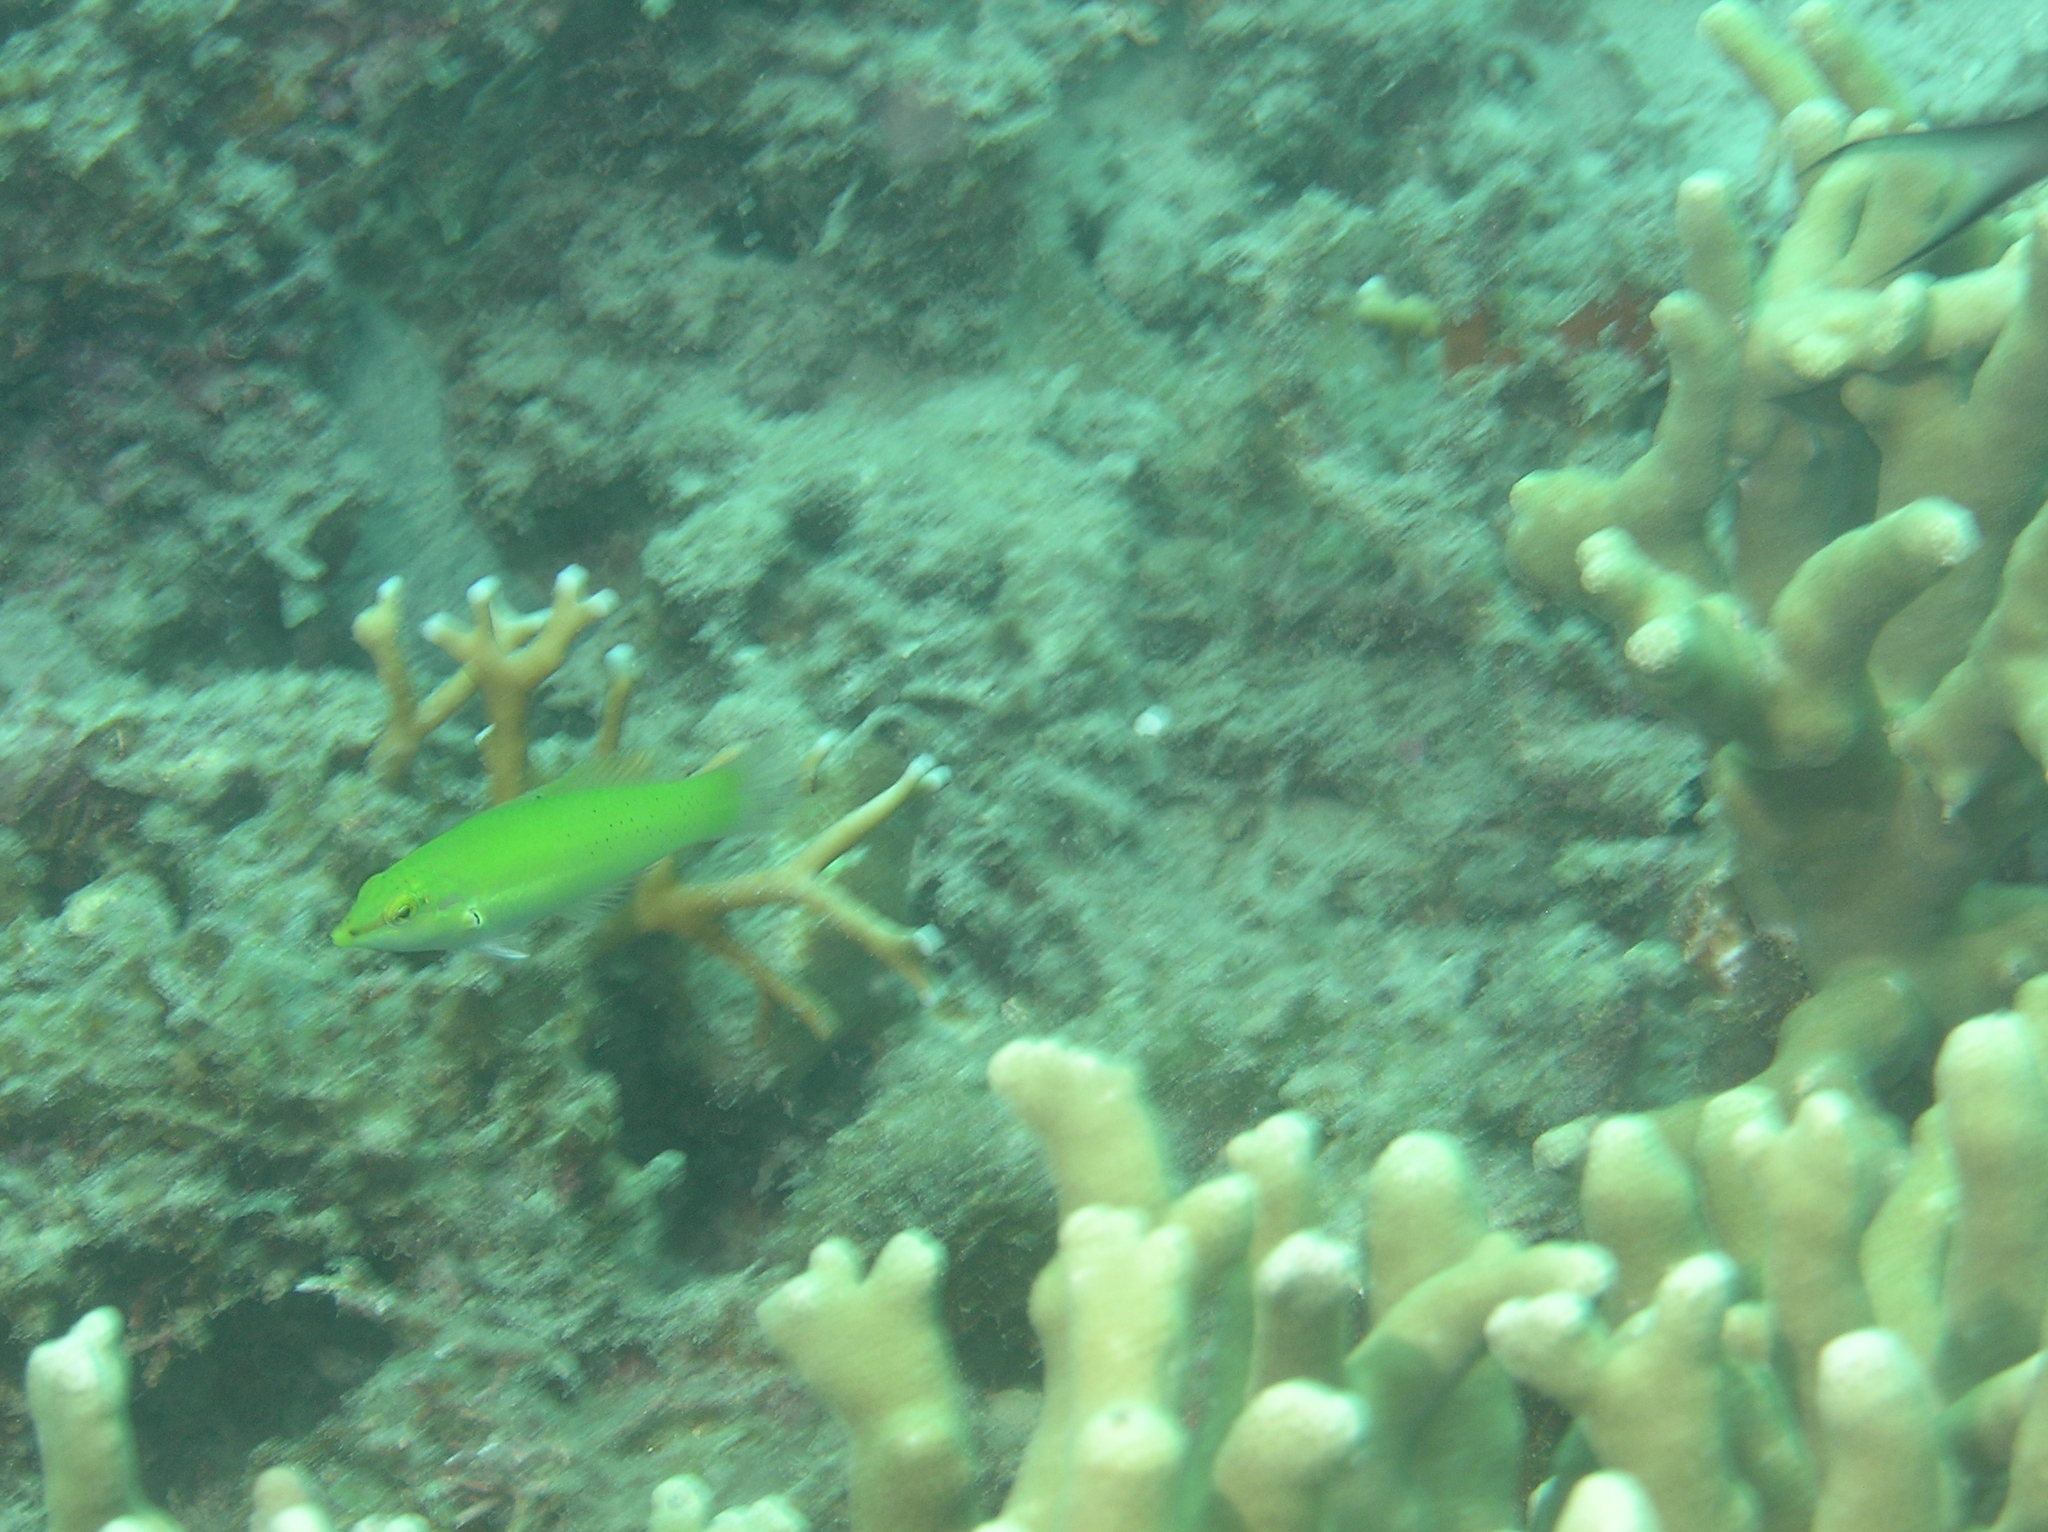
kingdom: Animalia
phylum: Chordata
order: Perciformes
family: Labridae
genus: Halichoeres
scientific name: Halichoeres chloropterus
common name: Pastel-green wrasse
